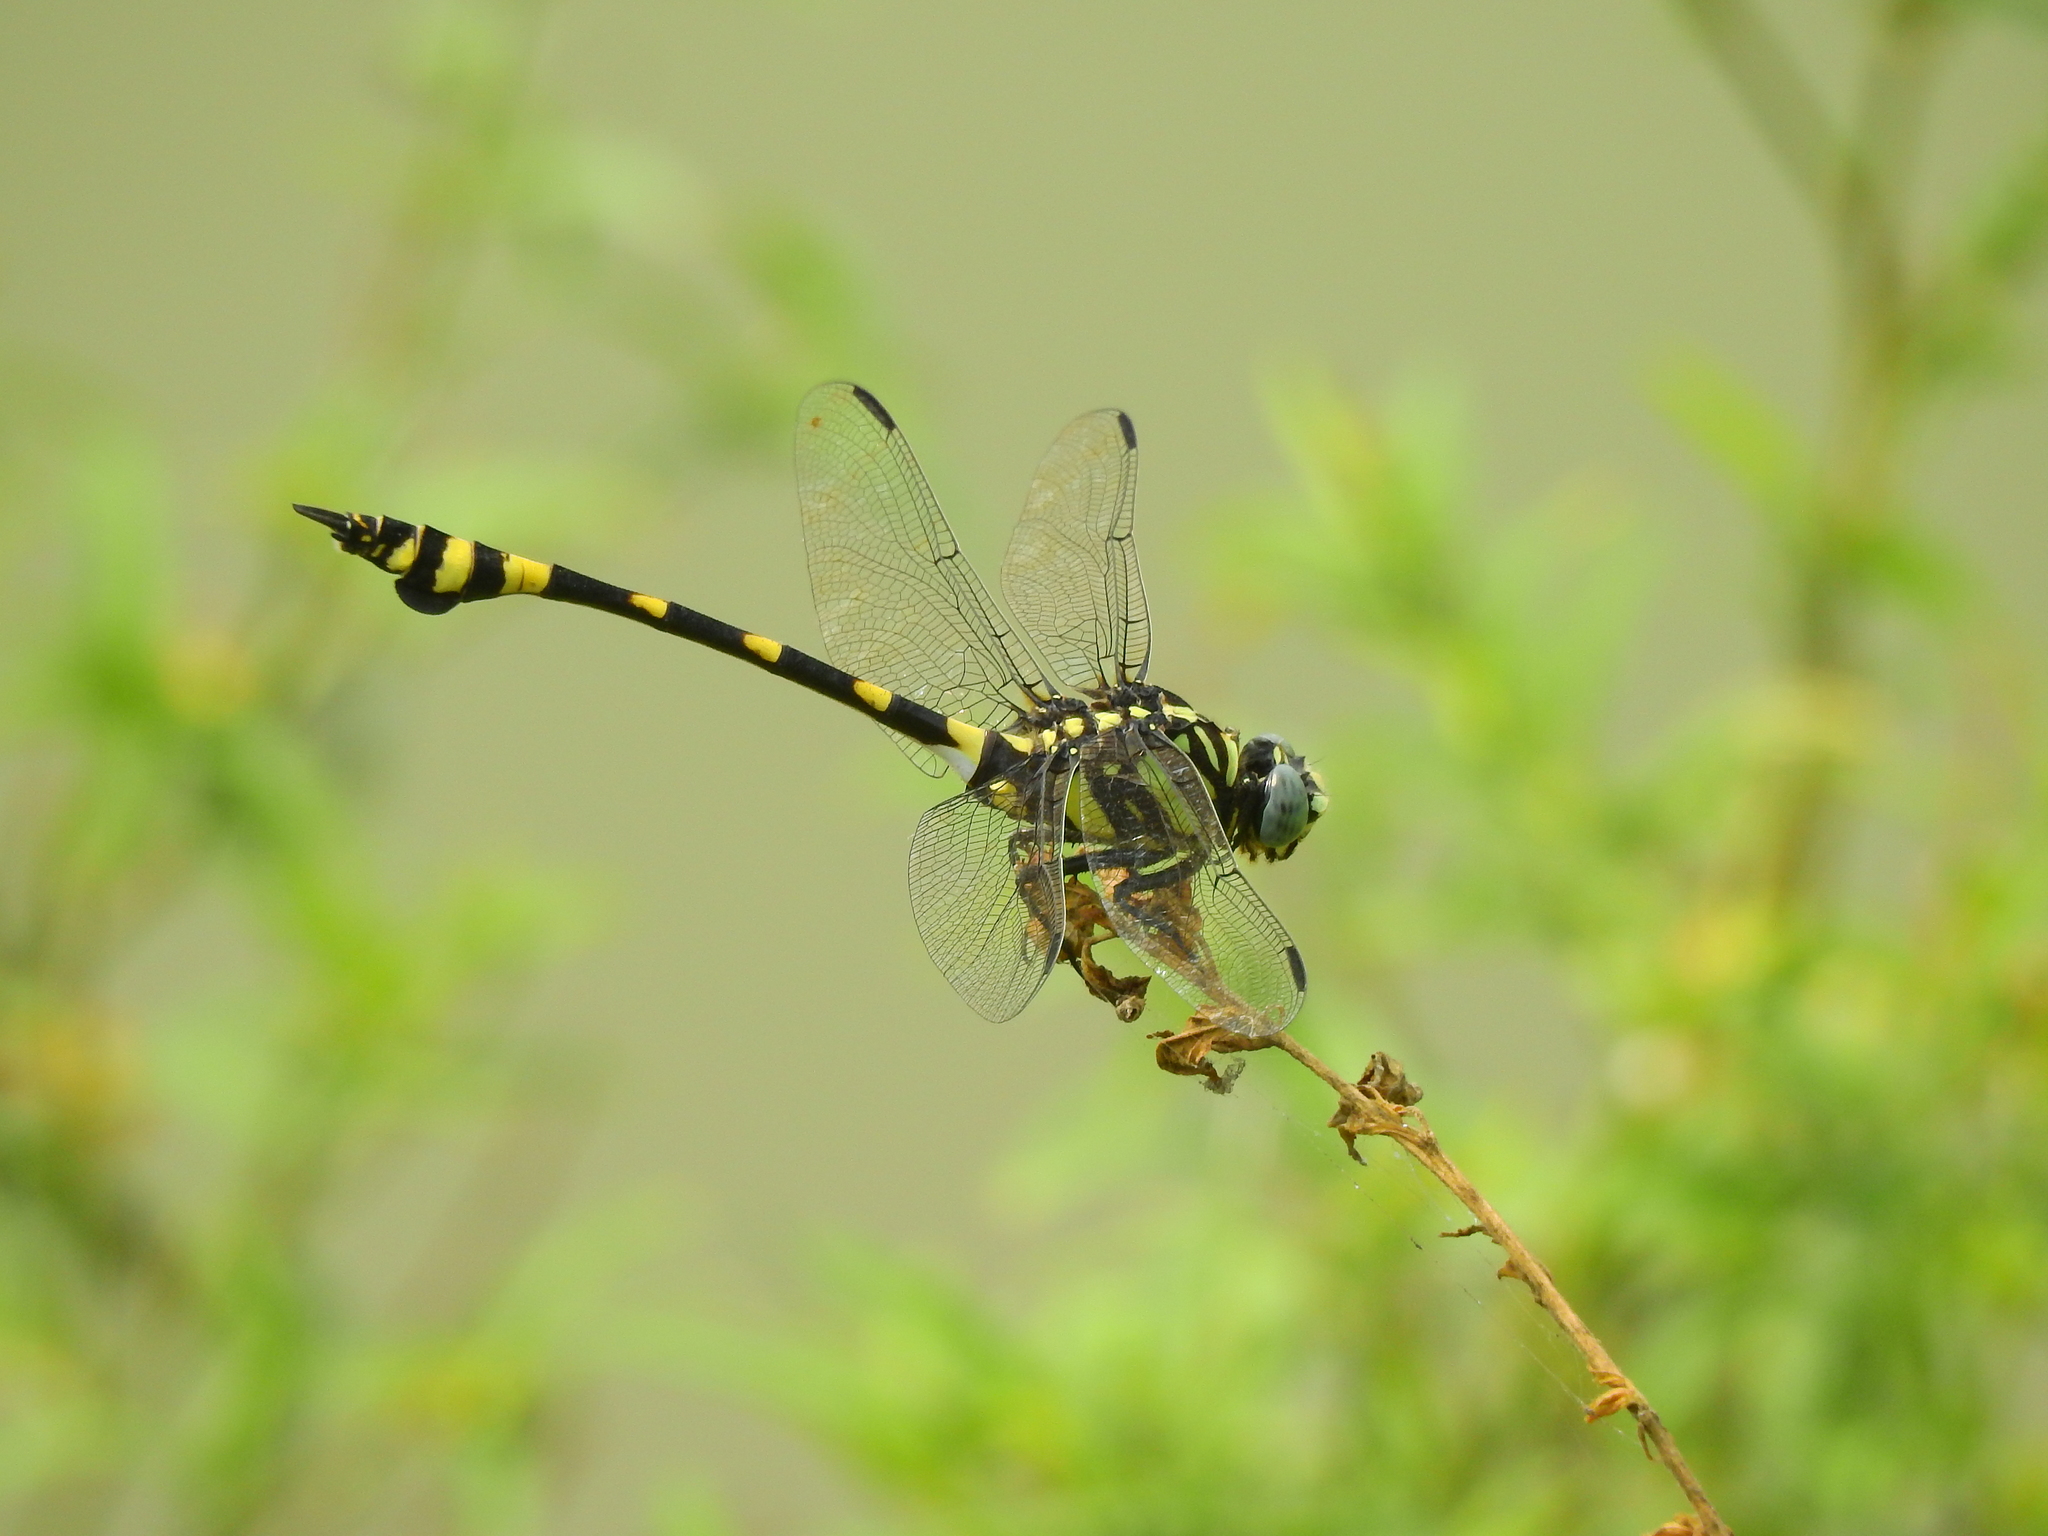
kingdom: Animalia
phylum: Arthropoda
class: Insecta
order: Odonata
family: Gomphidae
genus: Ictinogomphus
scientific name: Ictinogomphus rapax
